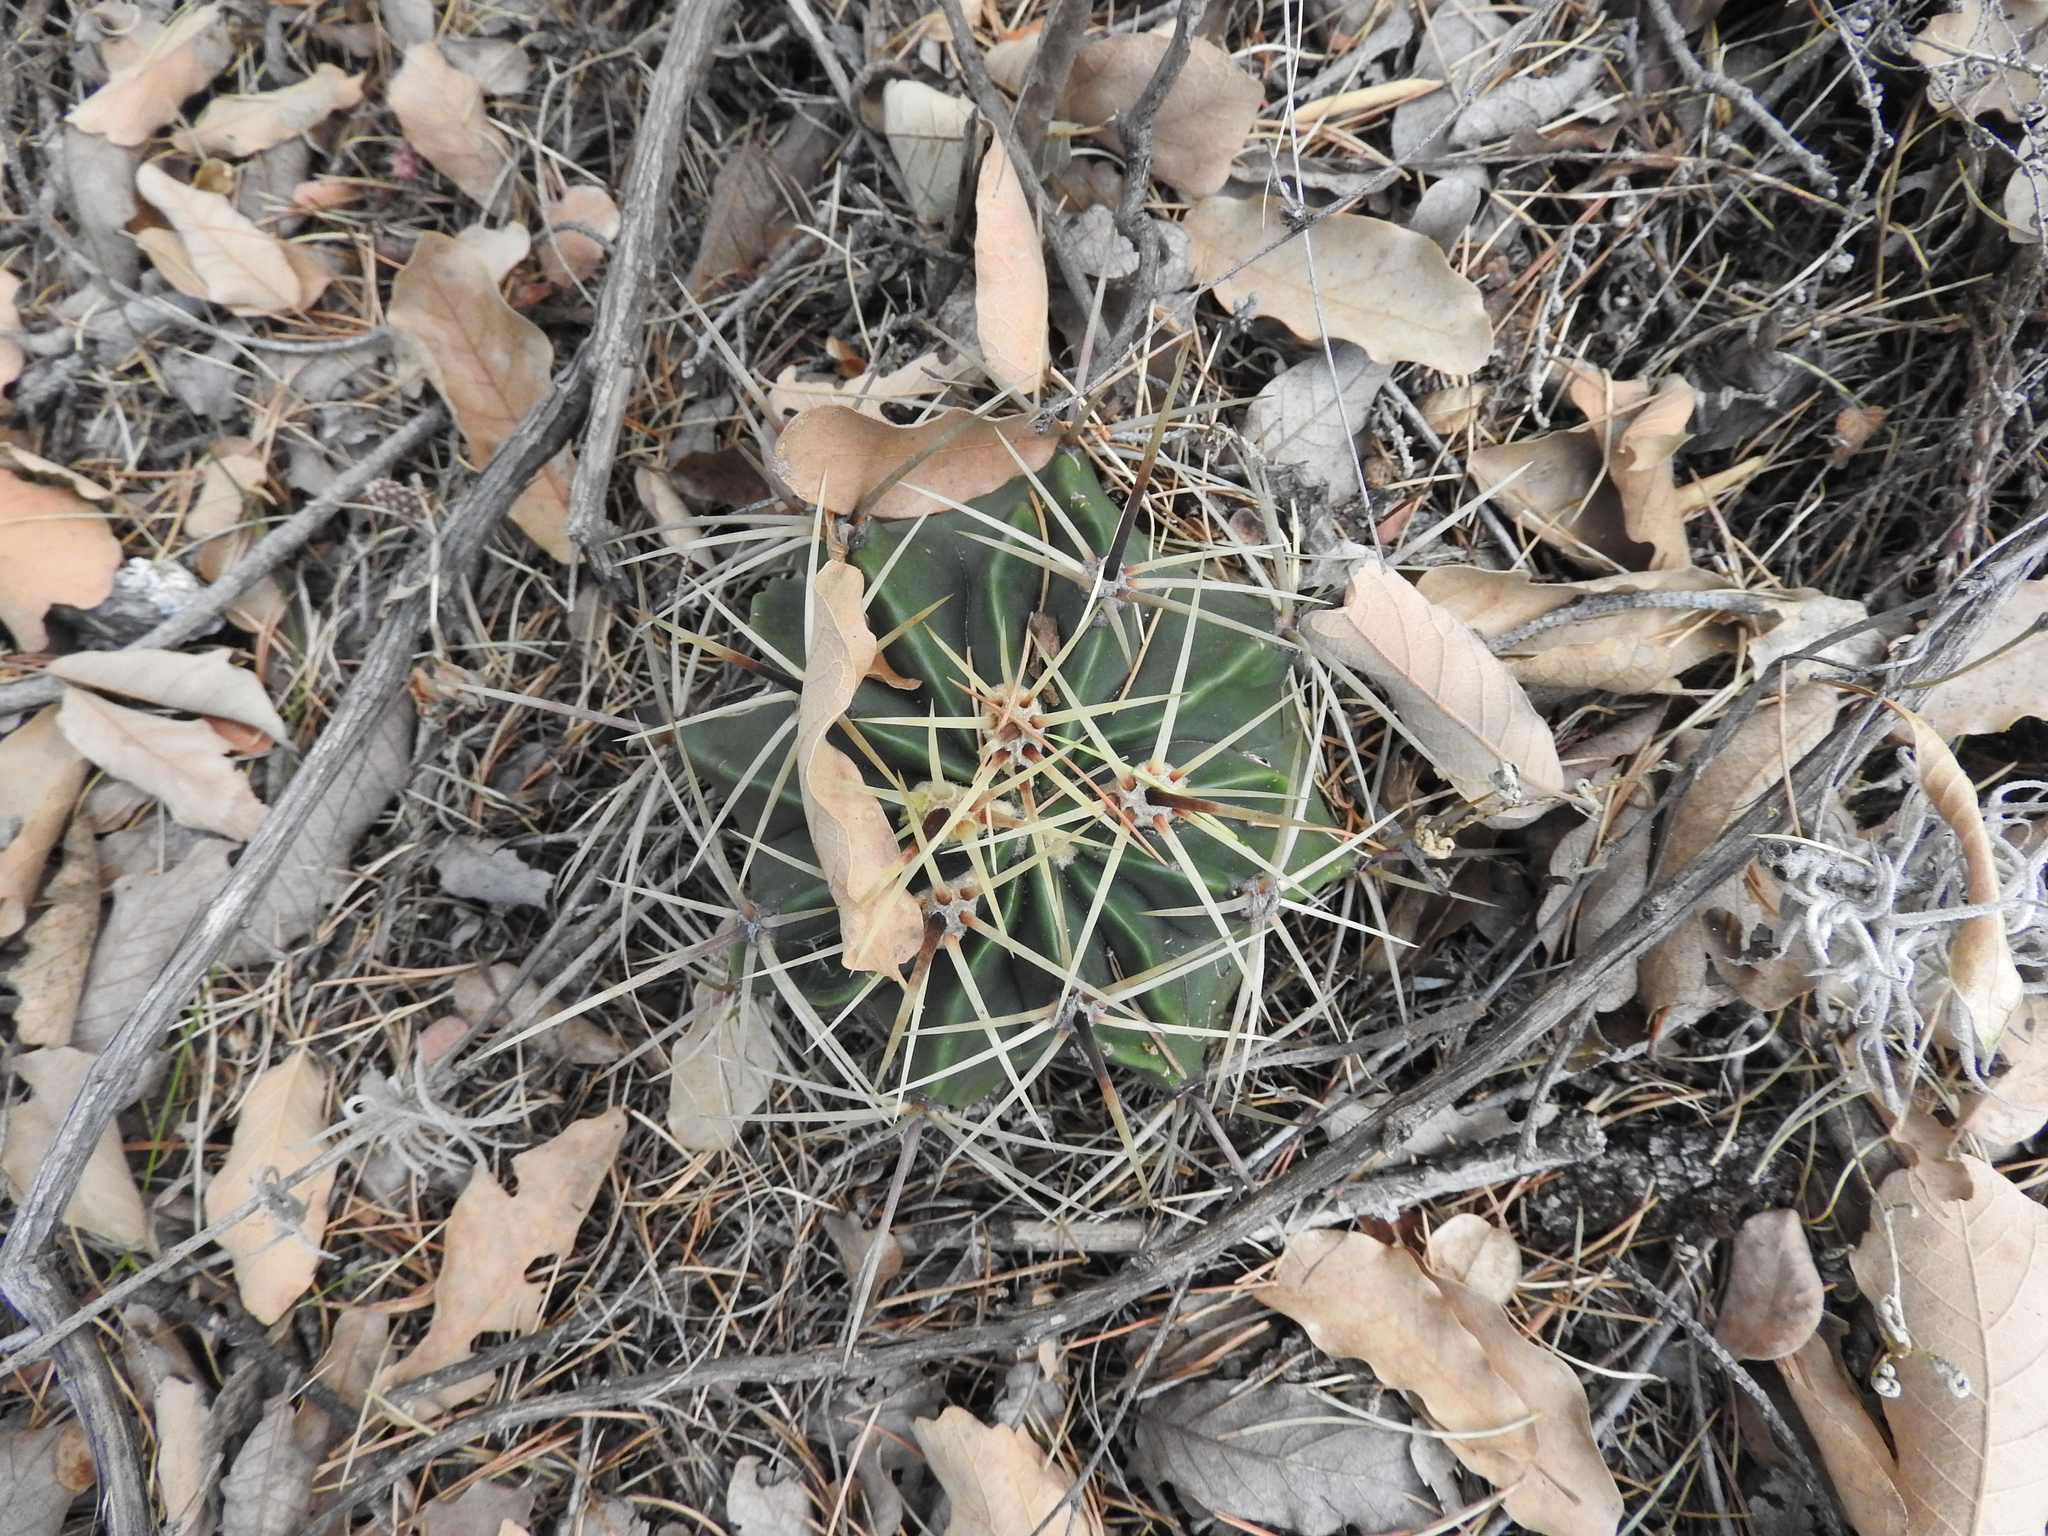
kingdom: Plantae
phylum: Tracheophyta
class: Magnoliopsida
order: Caryophyllales
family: Cactaceae
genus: Bisnaga
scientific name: Bisnaga histrix
